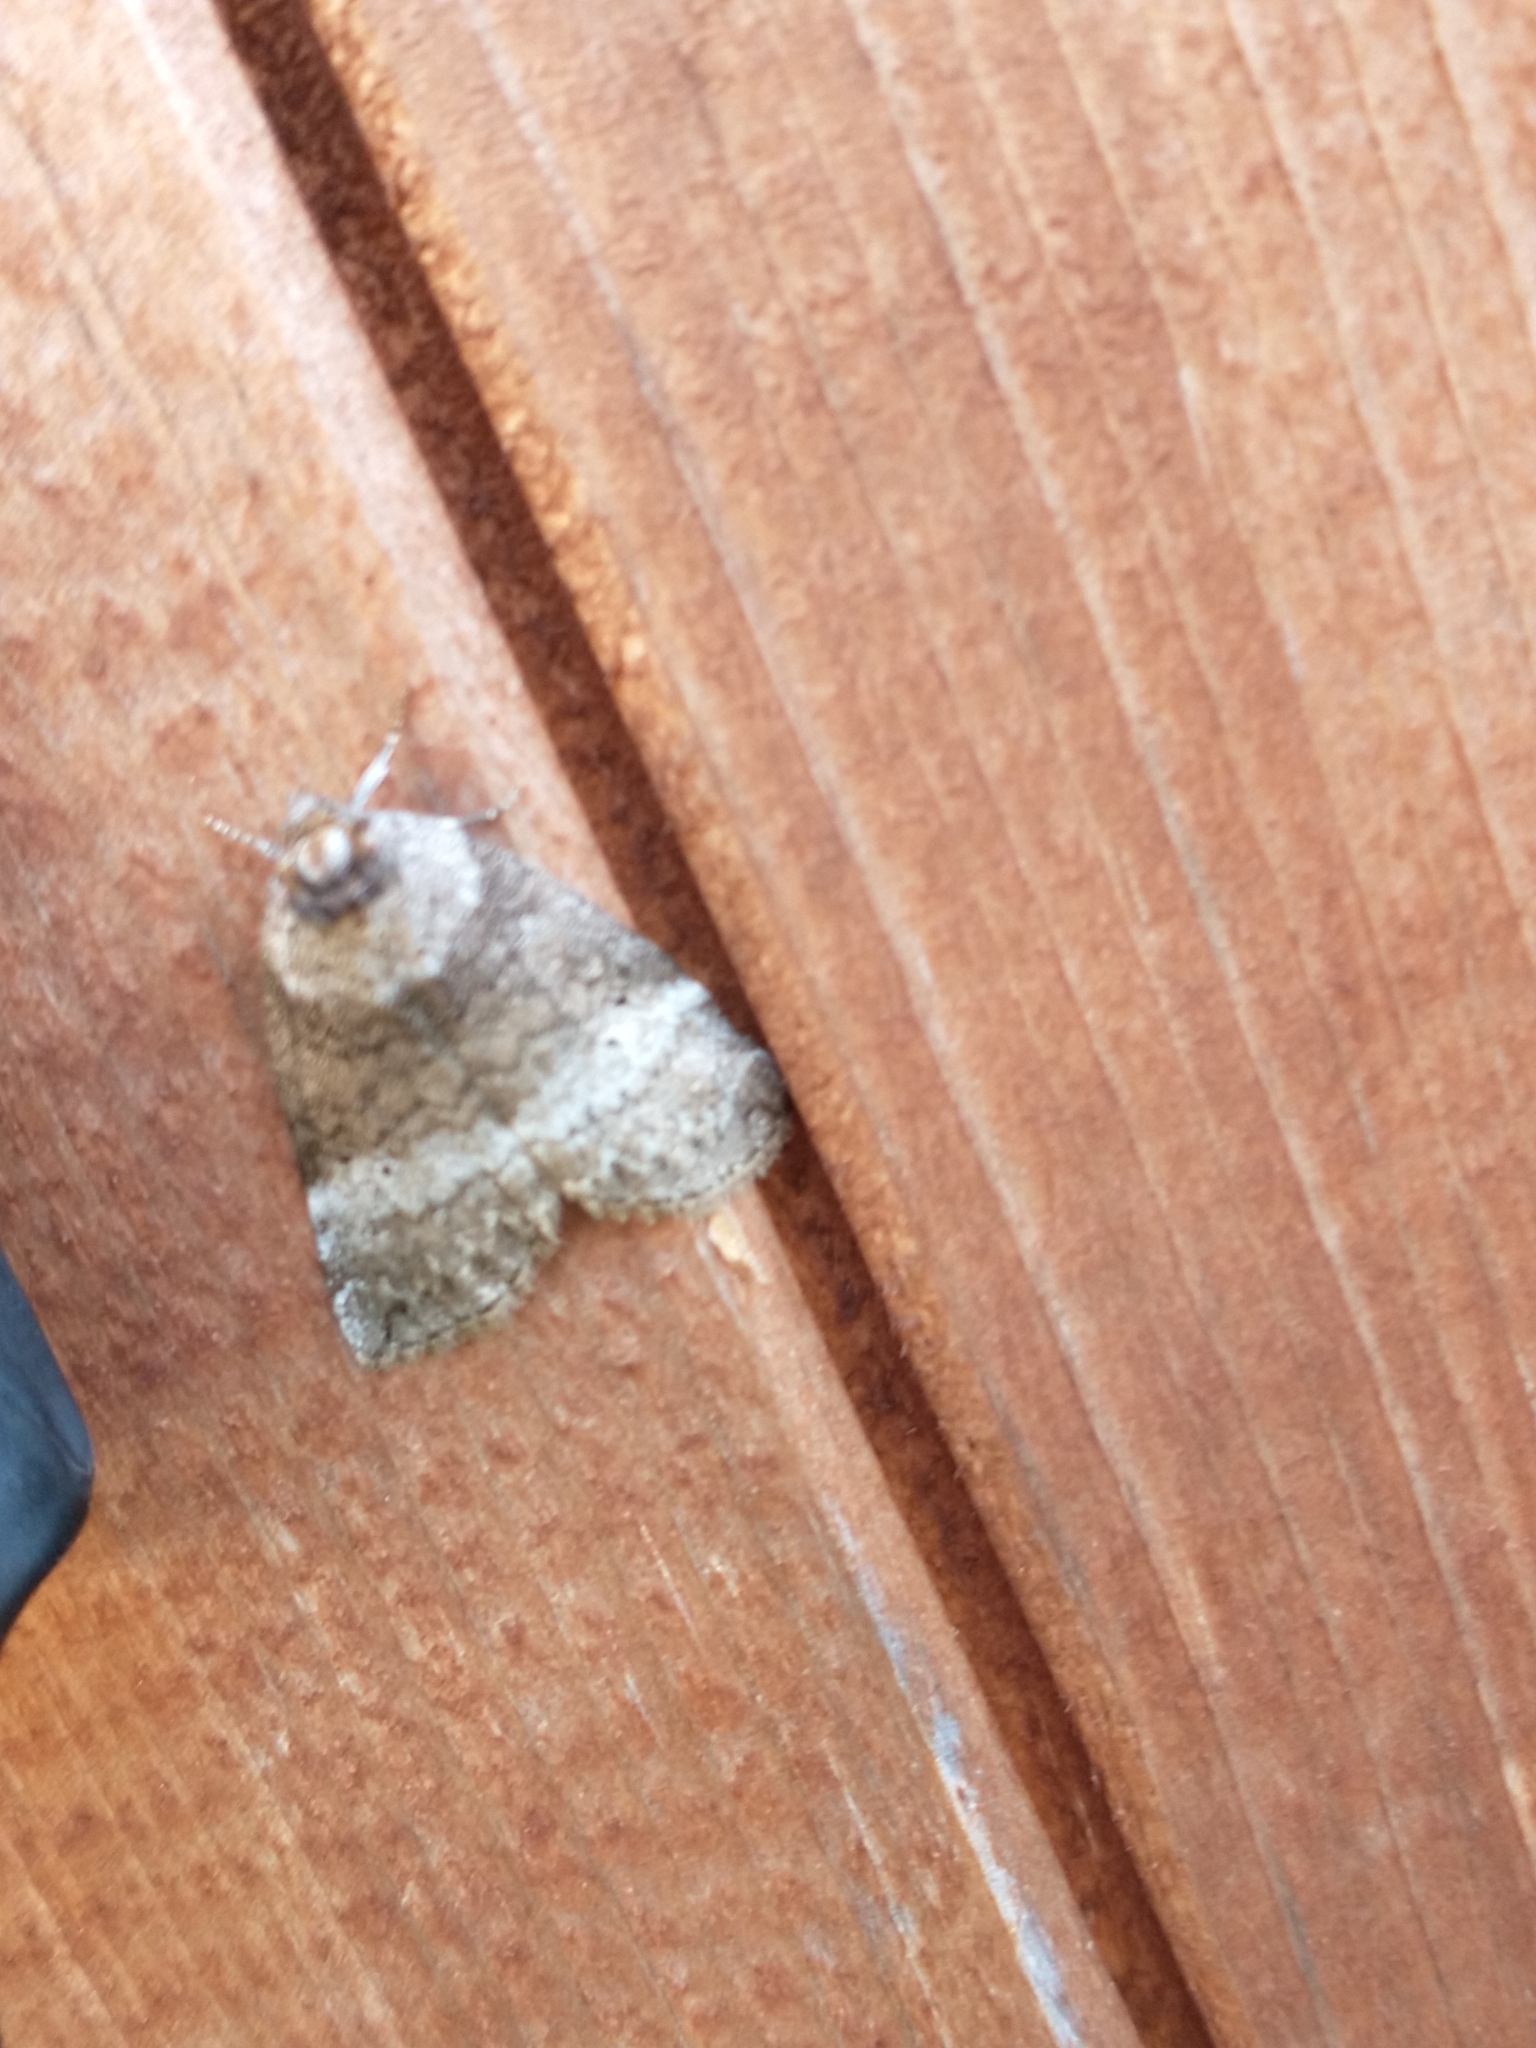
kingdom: Animalia
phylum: Arthropoda
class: Insecta
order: Lepidoptera
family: Drepanidae
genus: Ochropacha
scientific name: Ochropacha duplaris
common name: Common lutestring
